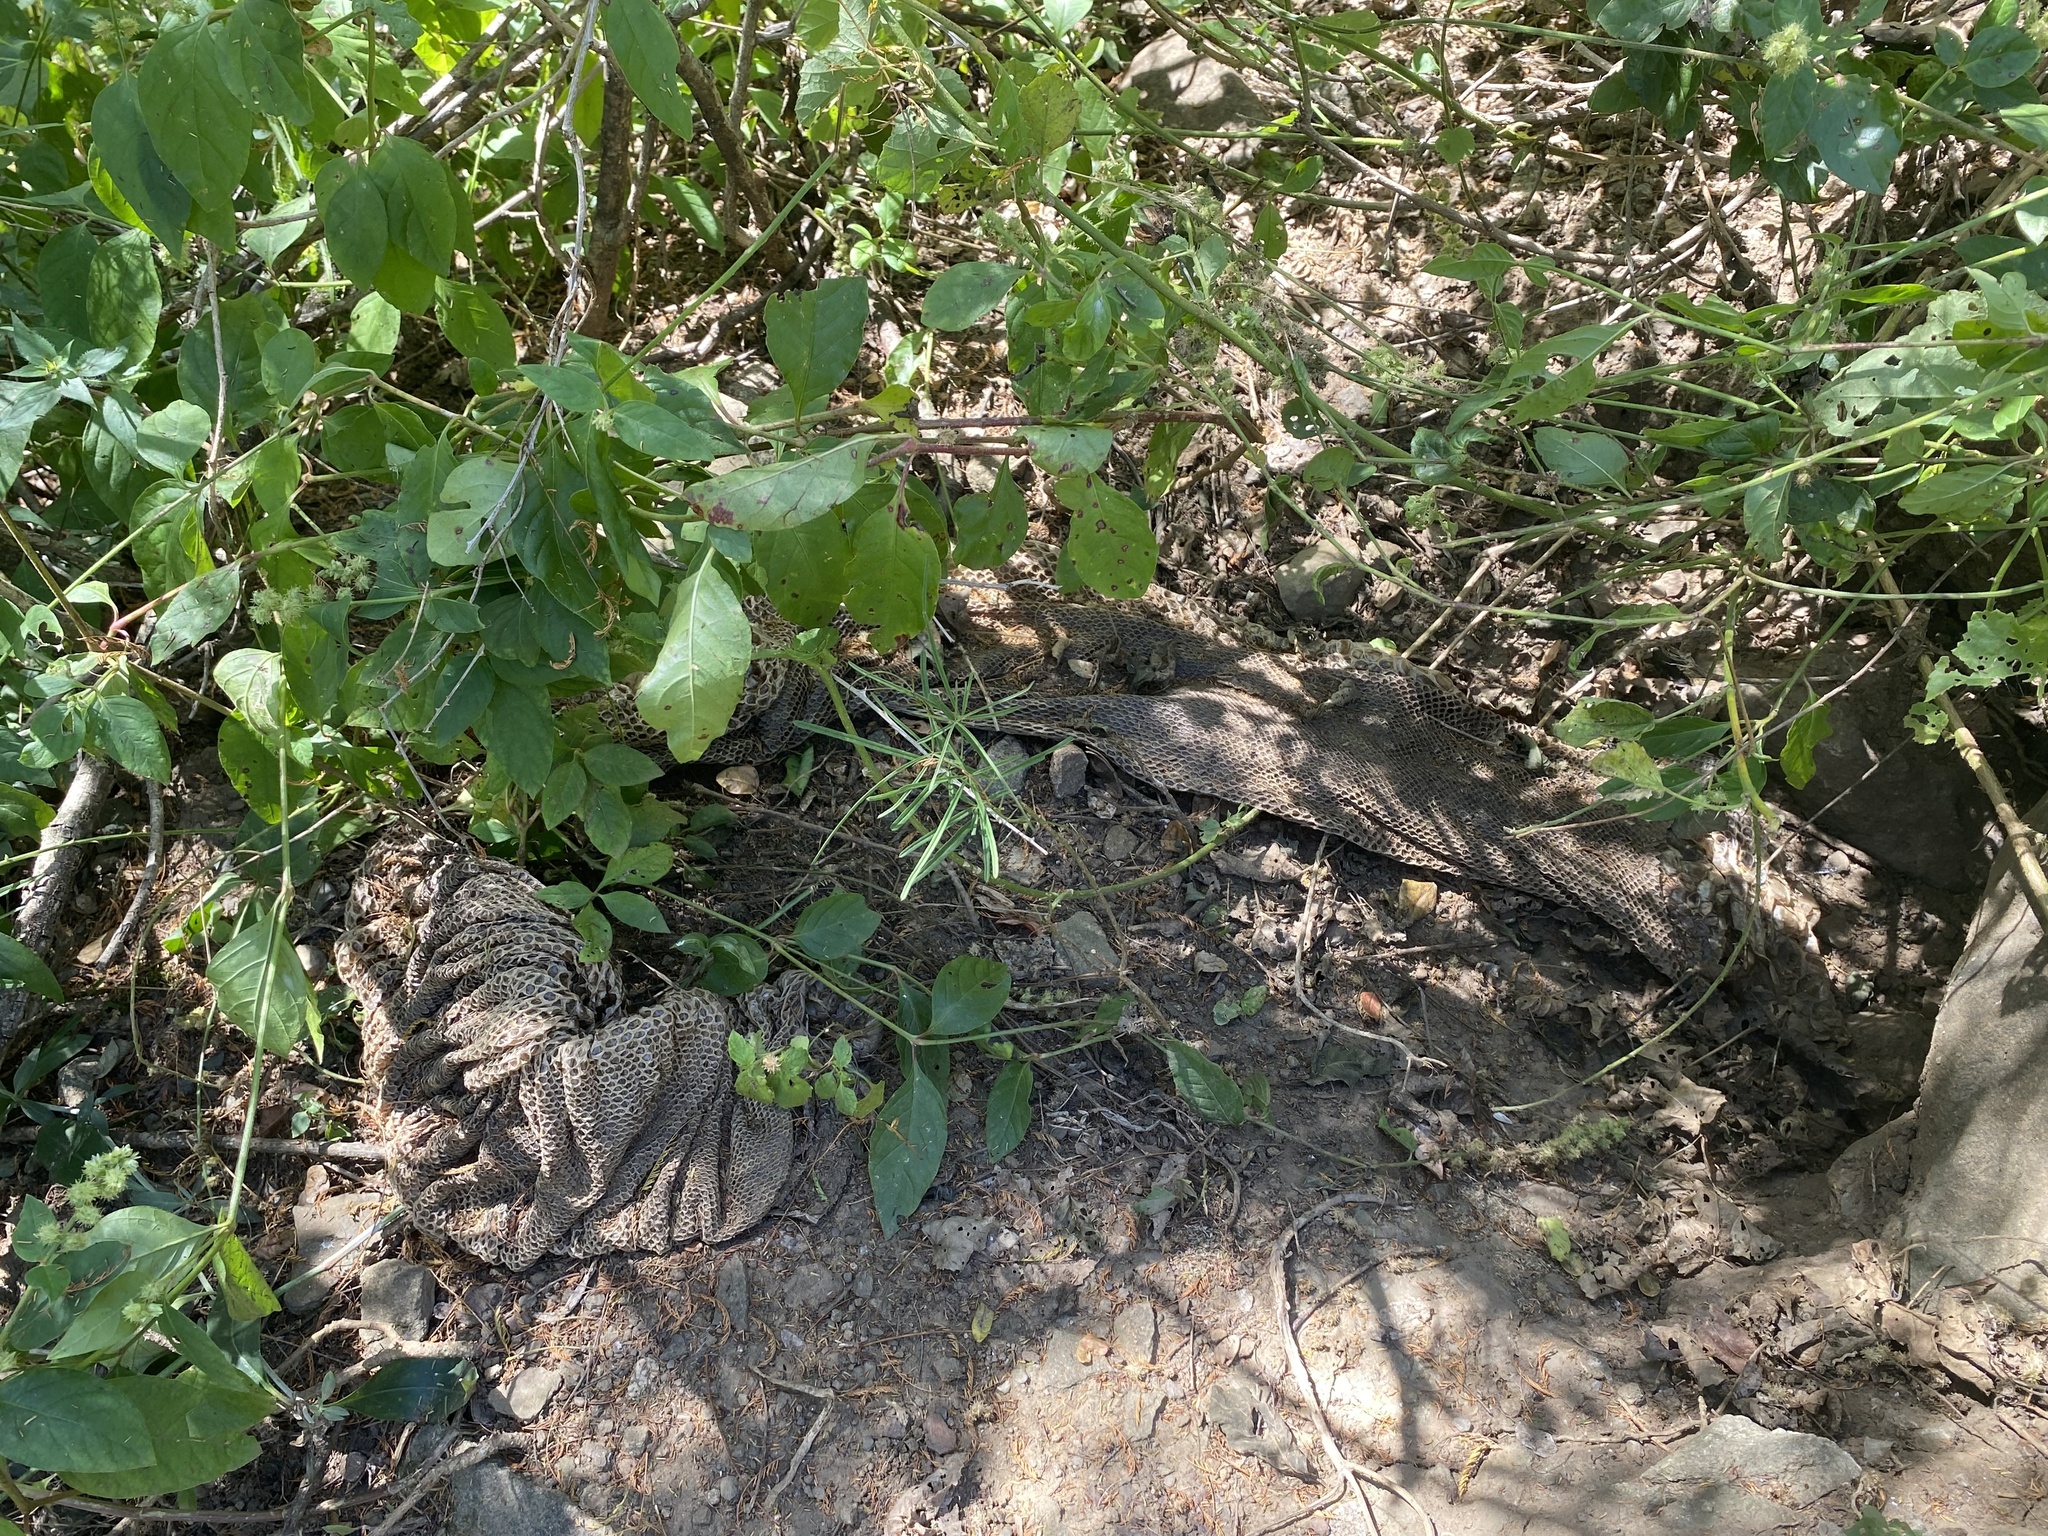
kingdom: Animalia
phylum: Chordata
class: Squamata
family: Pythonidae
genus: Python
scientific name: Python natalensis
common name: Southern african rock python
